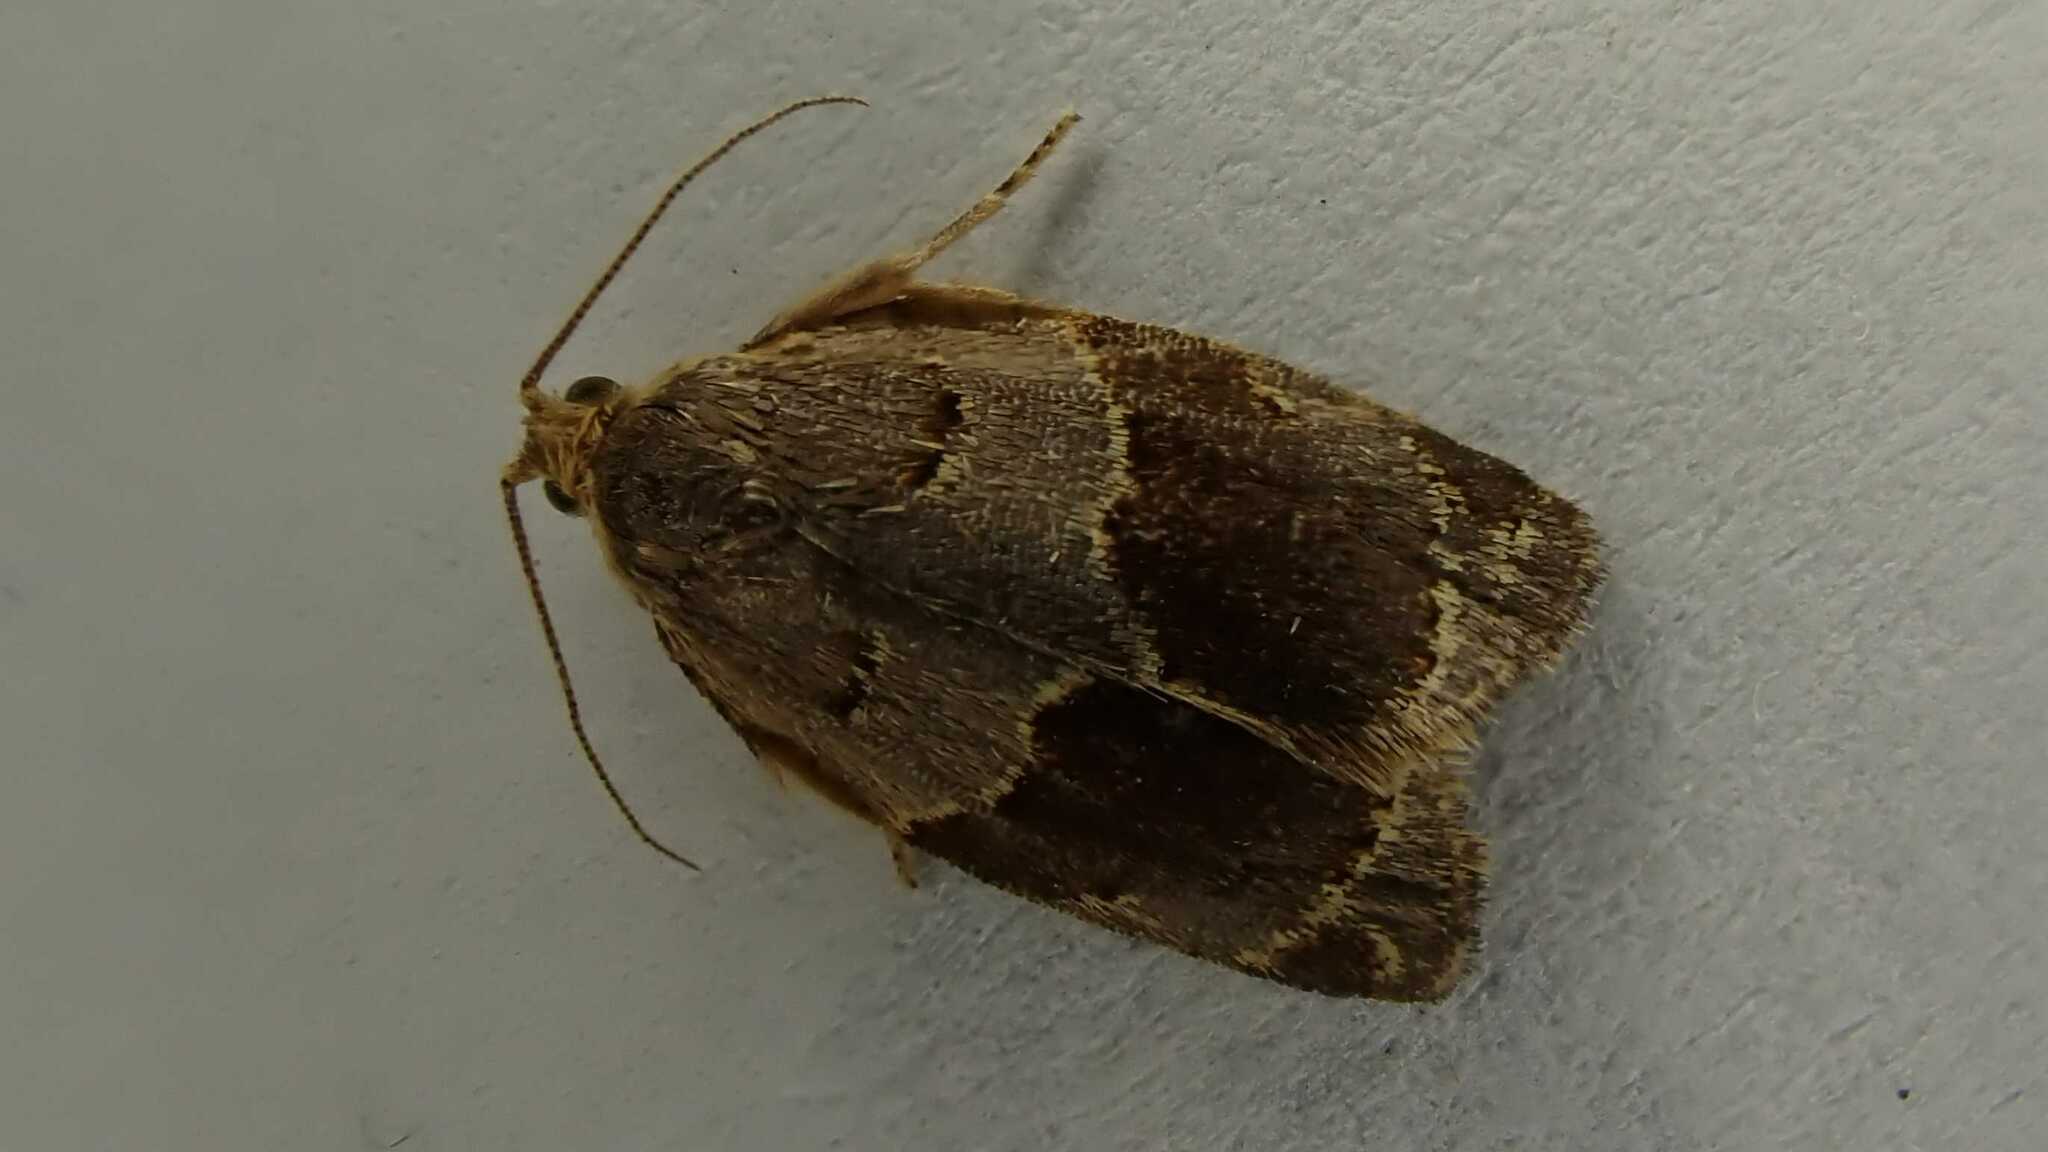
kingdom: Animalia
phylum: Arthropoda
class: Insecta
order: Lepidoptera
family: Tortricidae
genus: Clepsis
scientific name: Clepsis dumicolana
